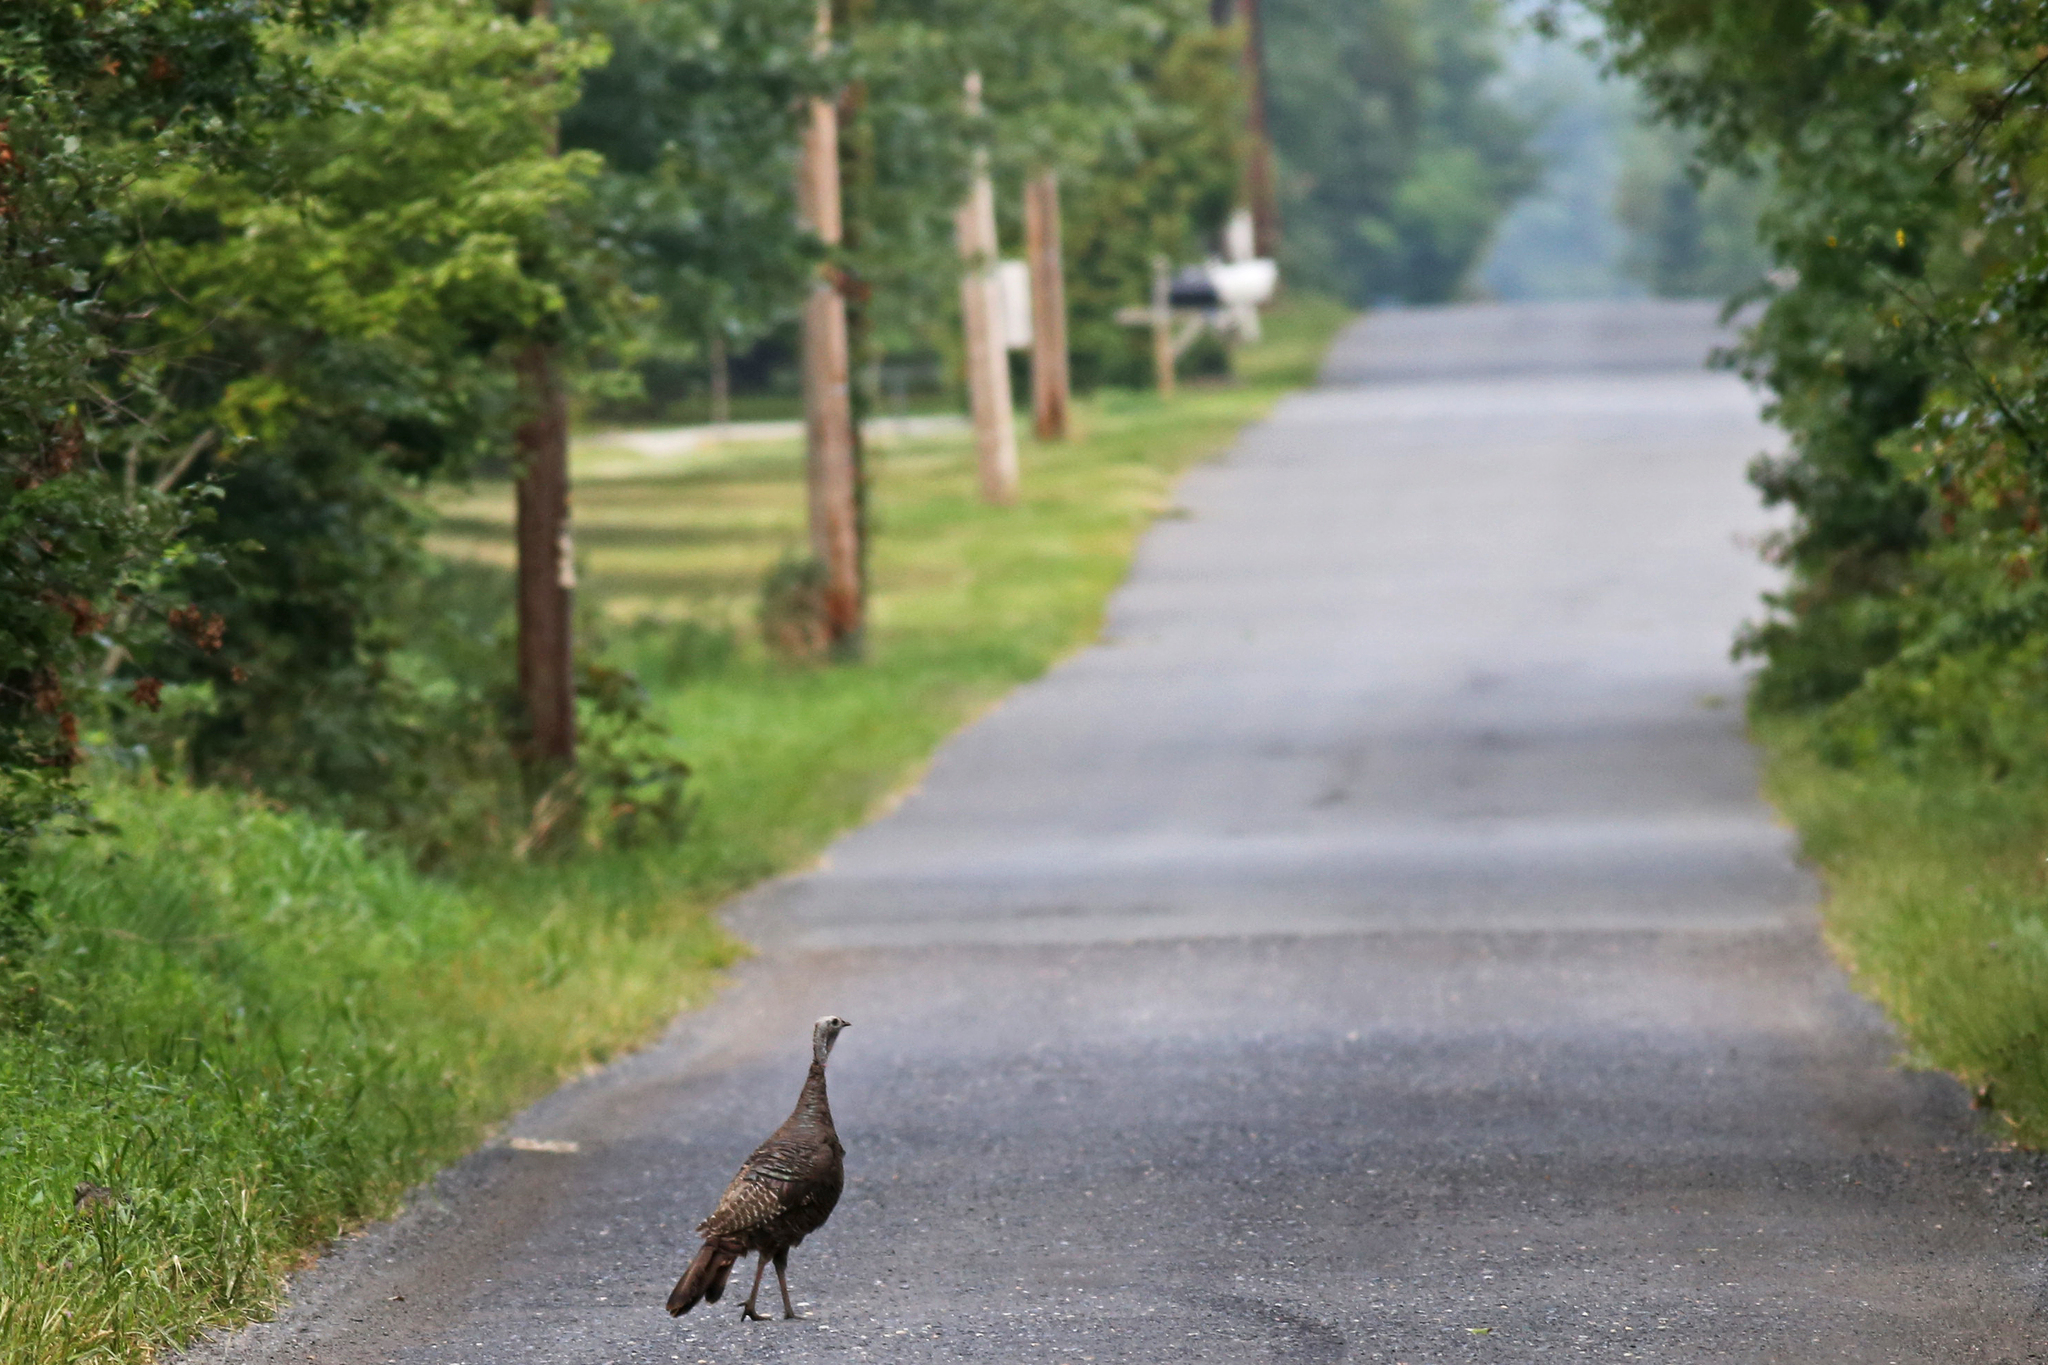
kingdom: Animalia
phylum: Chordata
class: Aves
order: Galliformes
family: Phasianidae
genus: Meleagris
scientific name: Meleagris gallopavo
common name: Wild turkey
